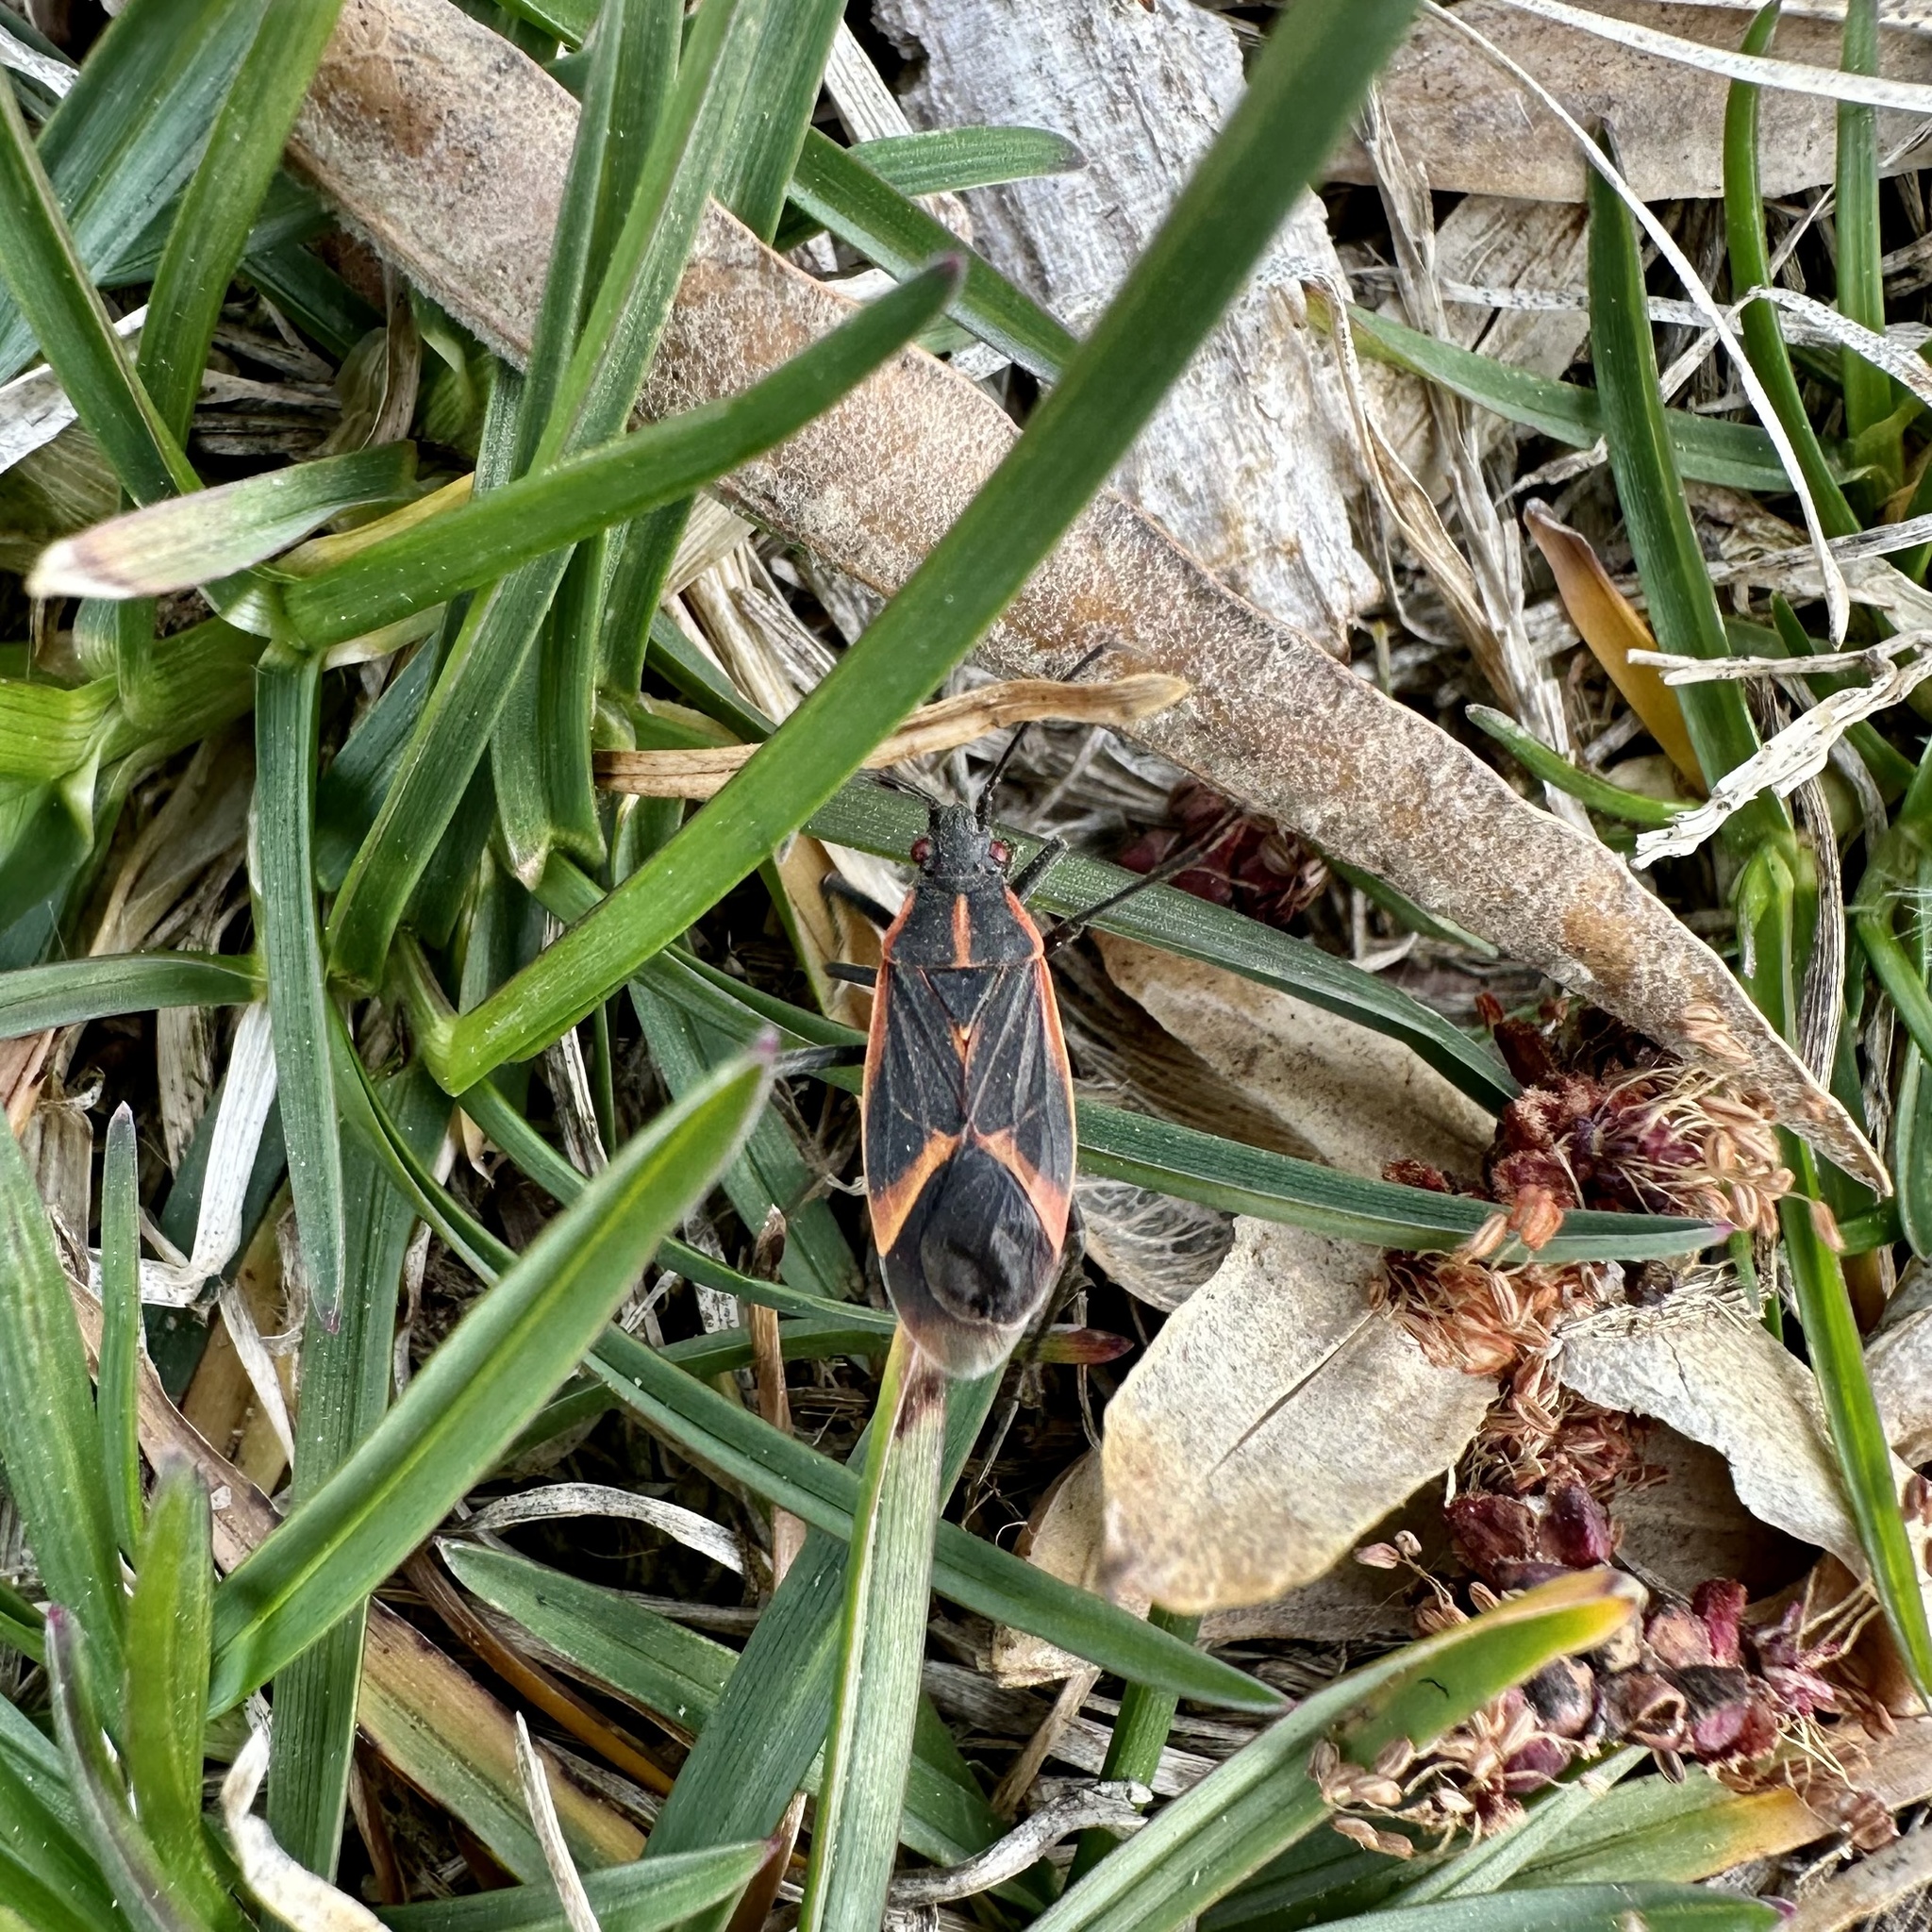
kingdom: Animalia
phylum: Arthropoda
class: Insecta
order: Hemiptera
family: Rhopalidae
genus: Boisea
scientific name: Boisea trivittata
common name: Boxelder bug
